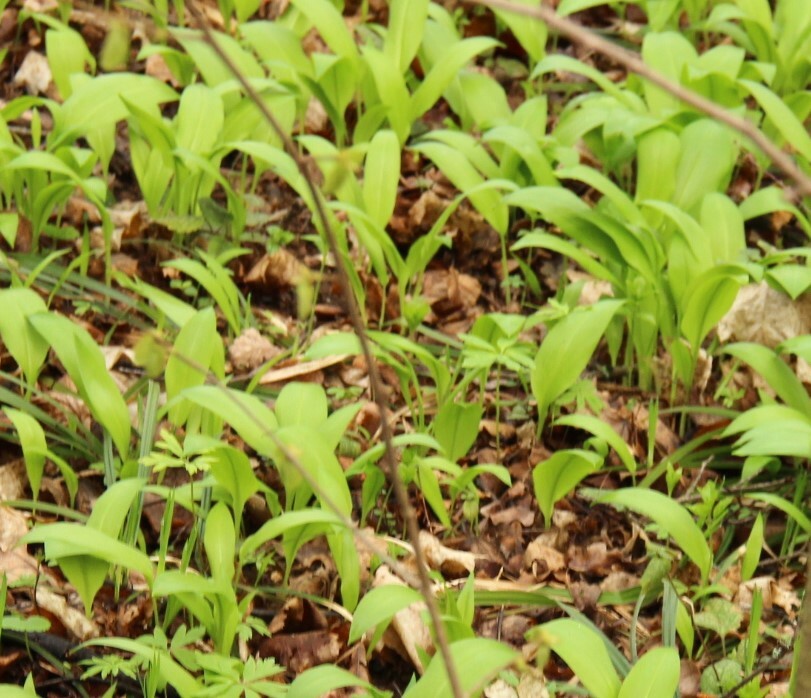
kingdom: Plantae
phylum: Tracheophyta
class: Liliopsida
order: Asparagales
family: Amaryllidaceae
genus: Allium
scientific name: Allium ursinum
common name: Ramsons
